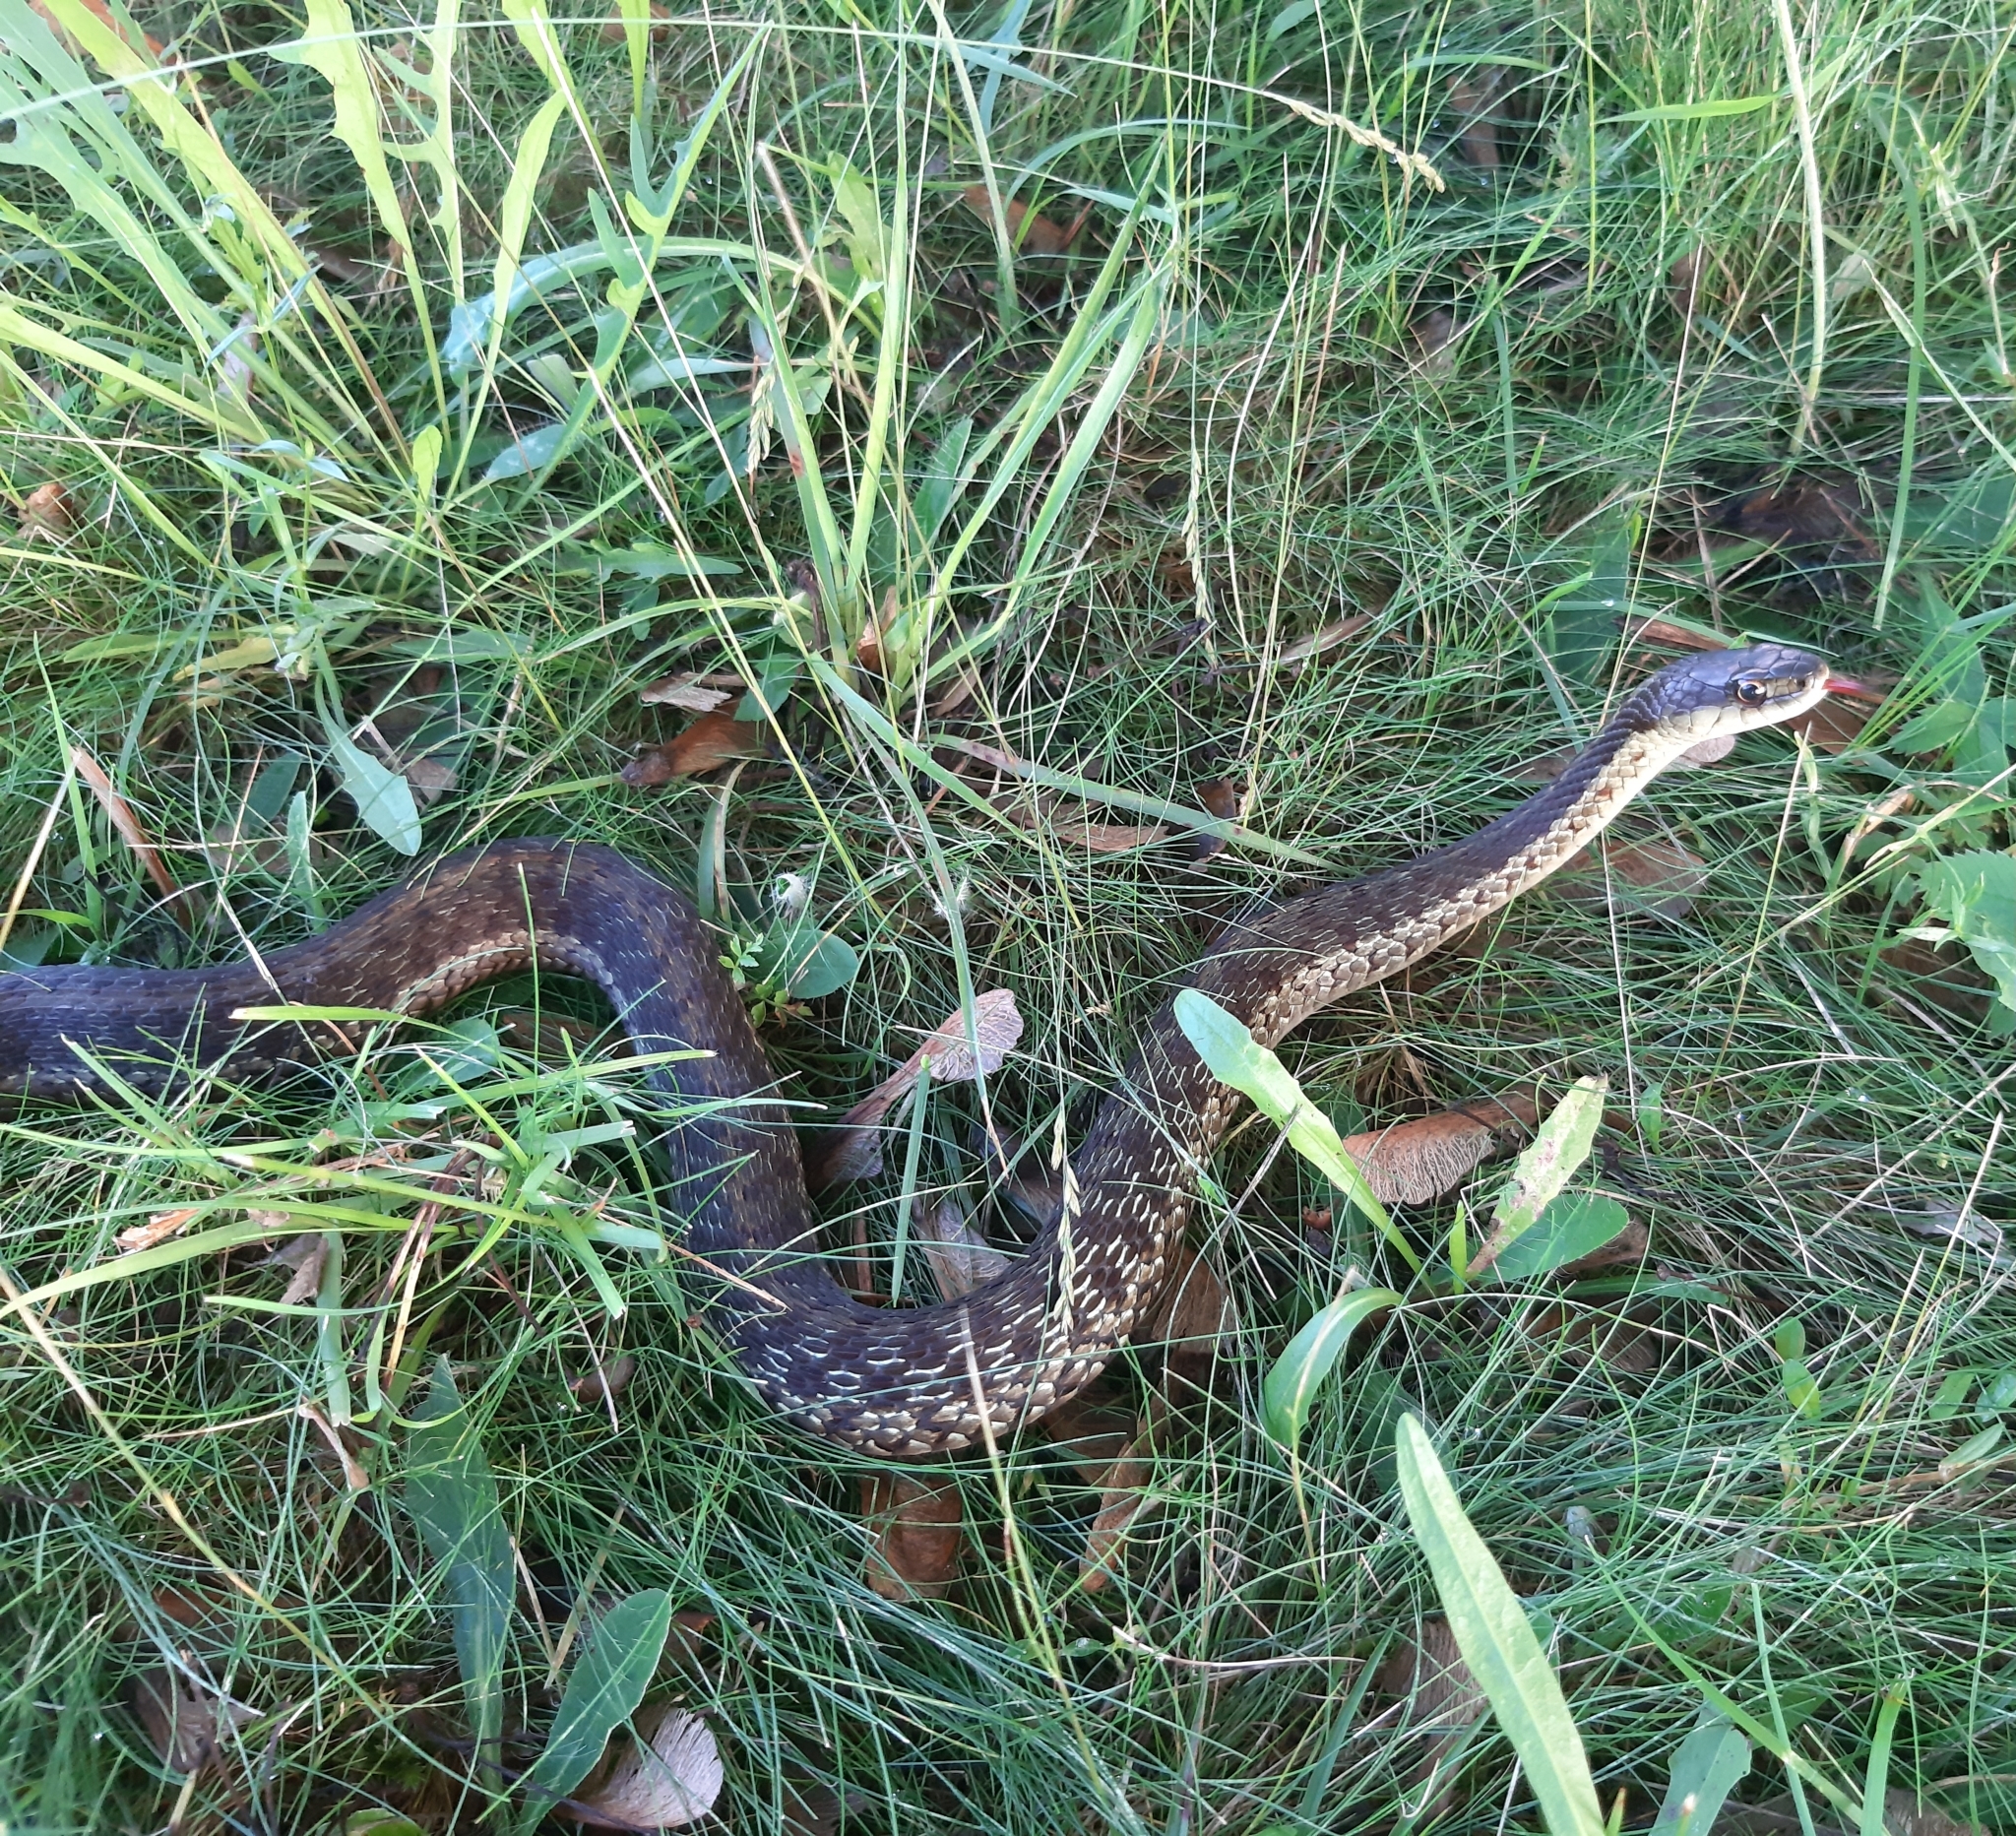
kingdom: Animalia
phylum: Chordata
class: Squamata
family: Colubridae
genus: Thamnophis
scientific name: Thamnophis sirtalis
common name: Common garter snake
